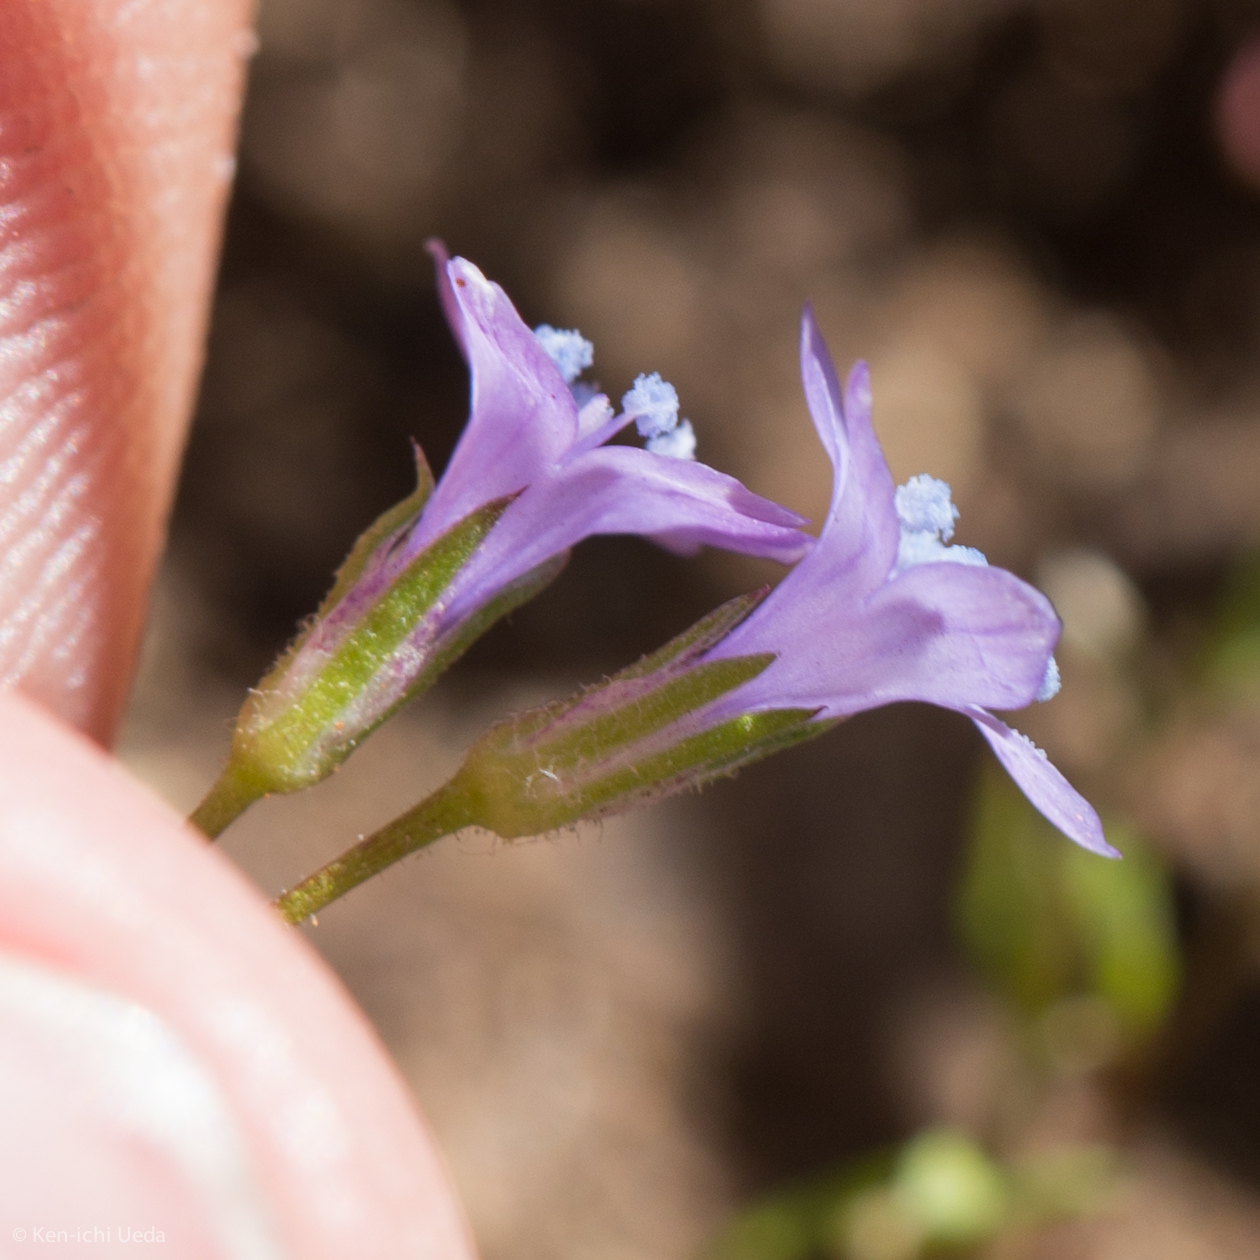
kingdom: Plantae
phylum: Tracheophyta
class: Magnoliopsida
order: Ericales
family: Polemoniaceae
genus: Gilia
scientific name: Gilia achilleifolia
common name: California gily-flower
